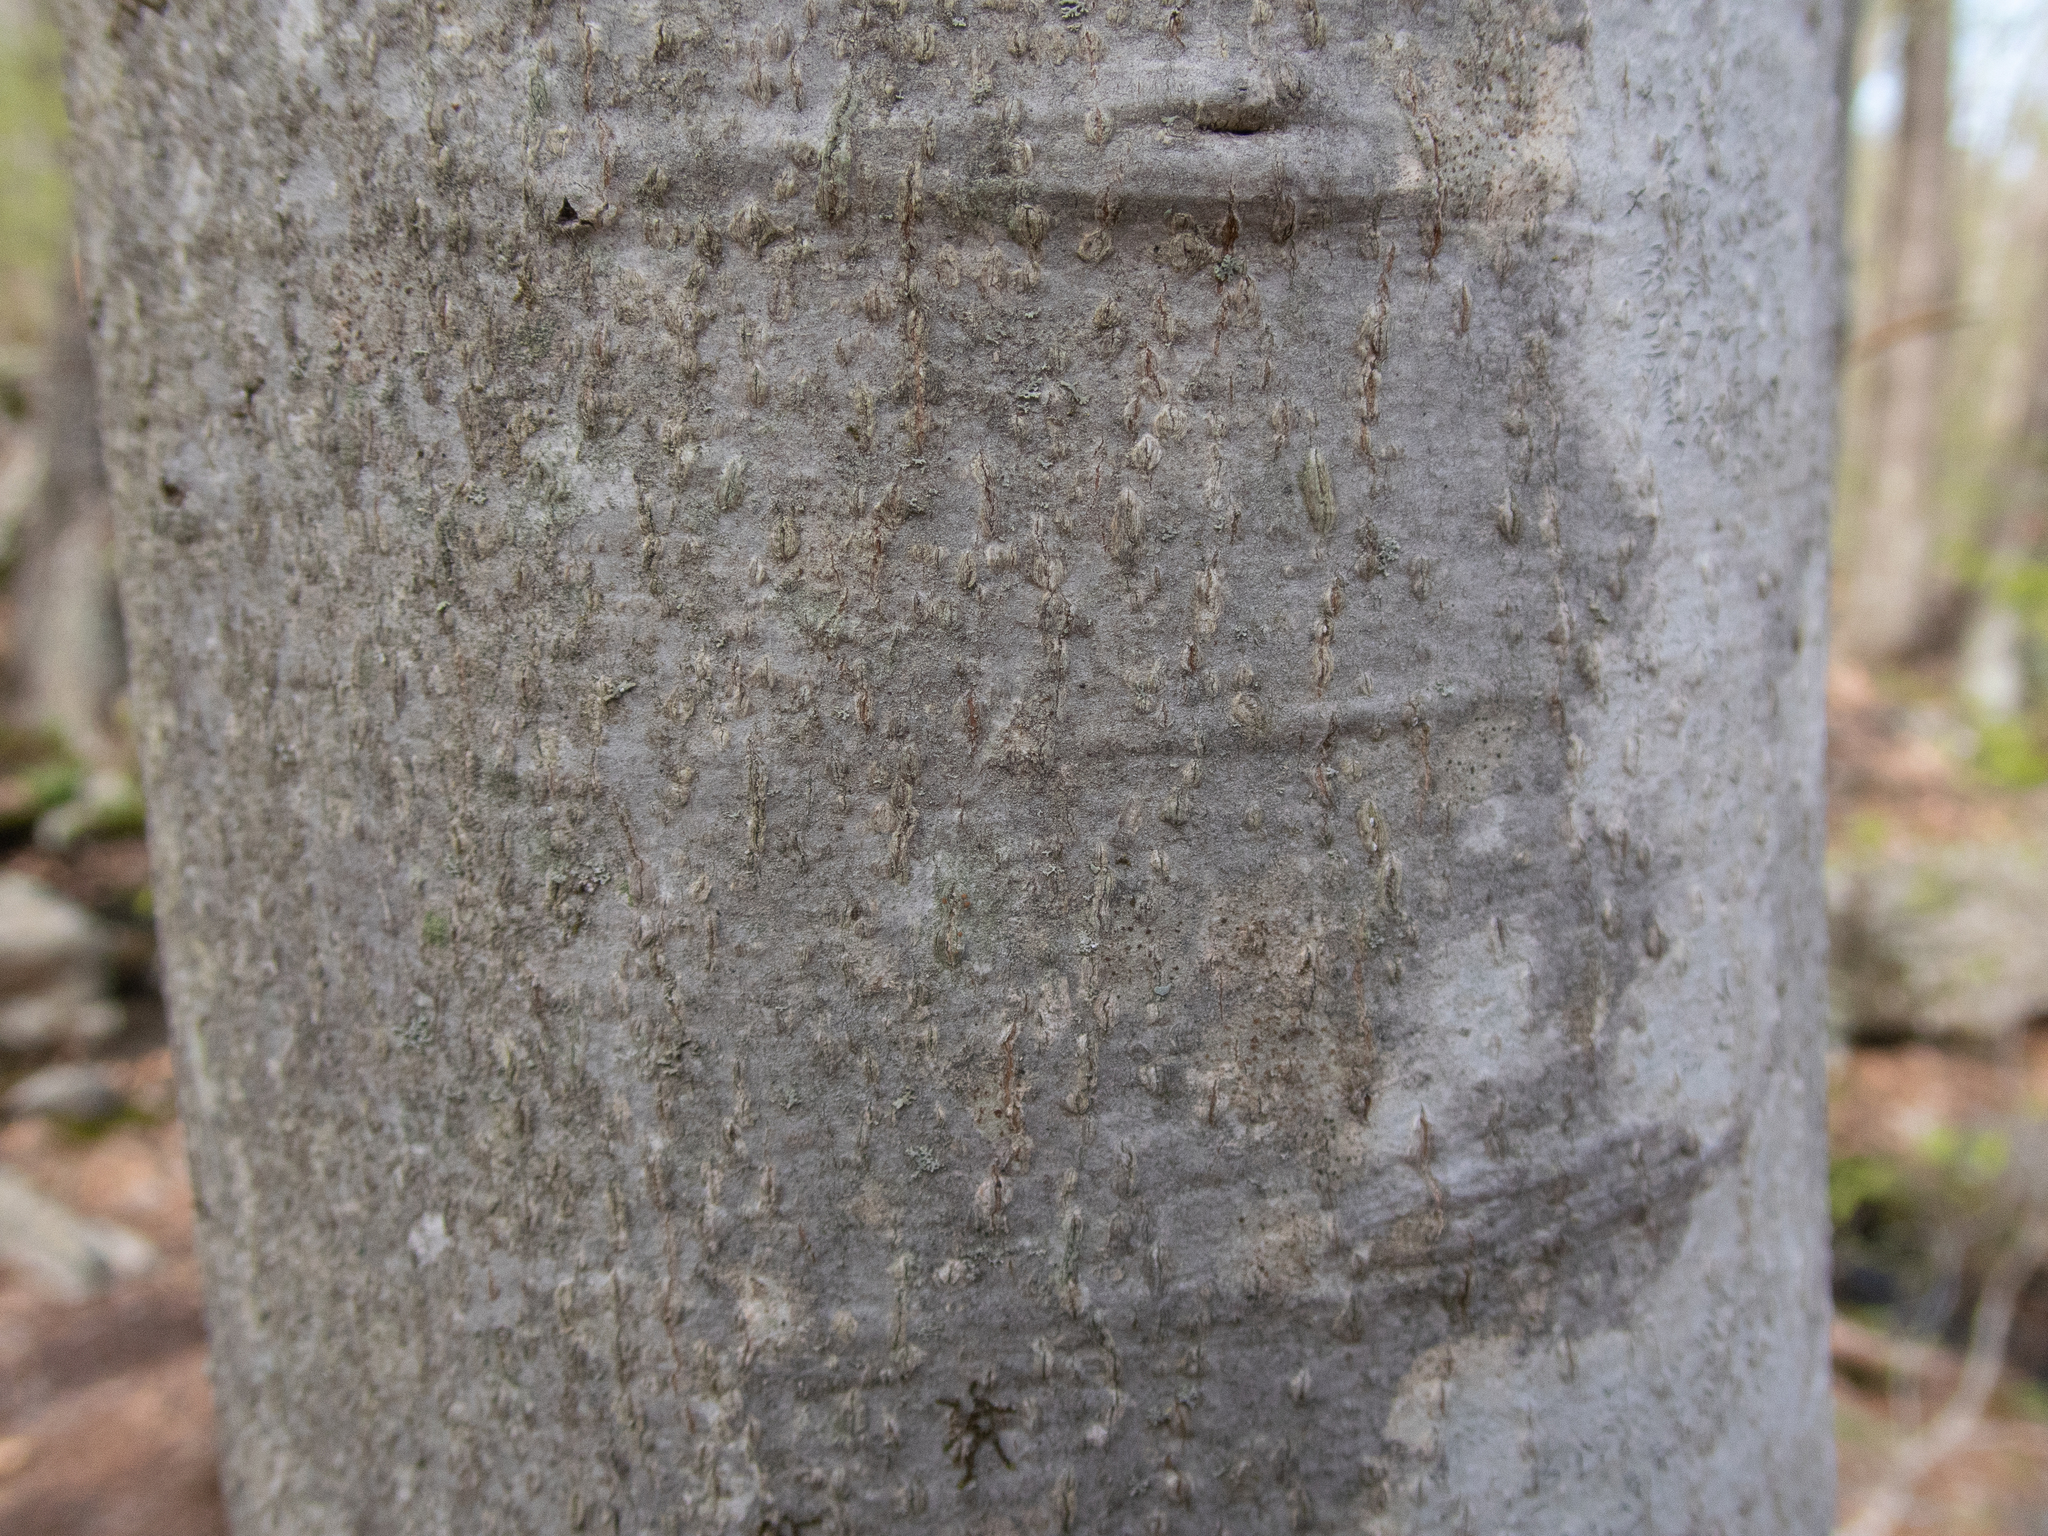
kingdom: Plantae
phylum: Tracheophyta
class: Magnoliopsida
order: Fagales
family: Fagaceae
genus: Fagus
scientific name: Fagus grandifolia
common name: American beech
